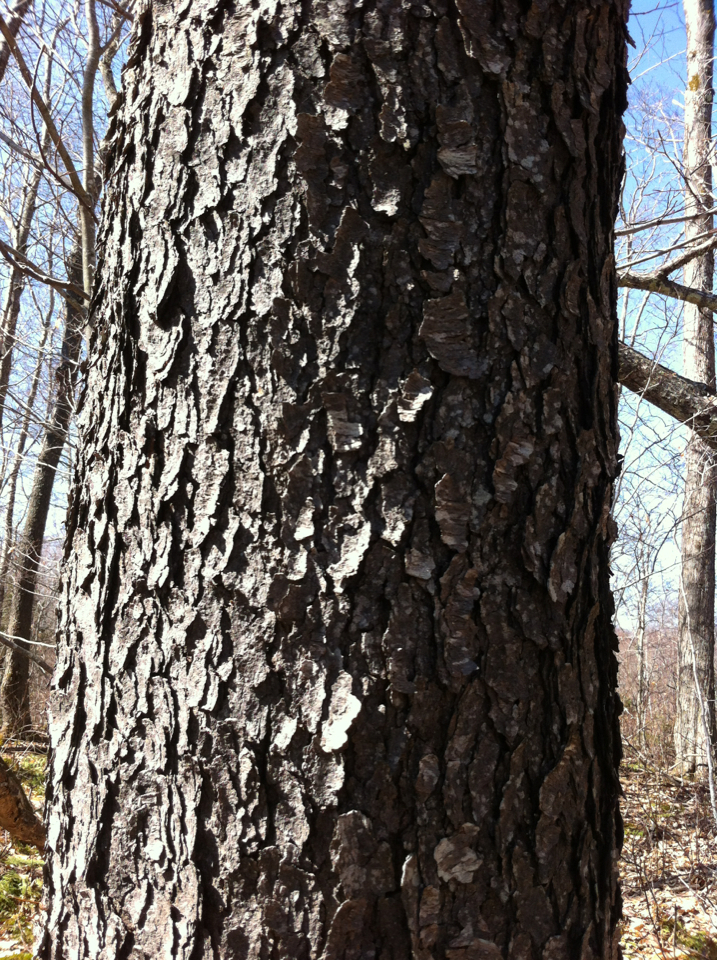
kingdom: Plantae
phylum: Tracheophyta
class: Magnoliopsida
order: Rosales
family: Rosaceae
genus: Prunus
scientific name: Prunus serotina
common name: Black cherry
